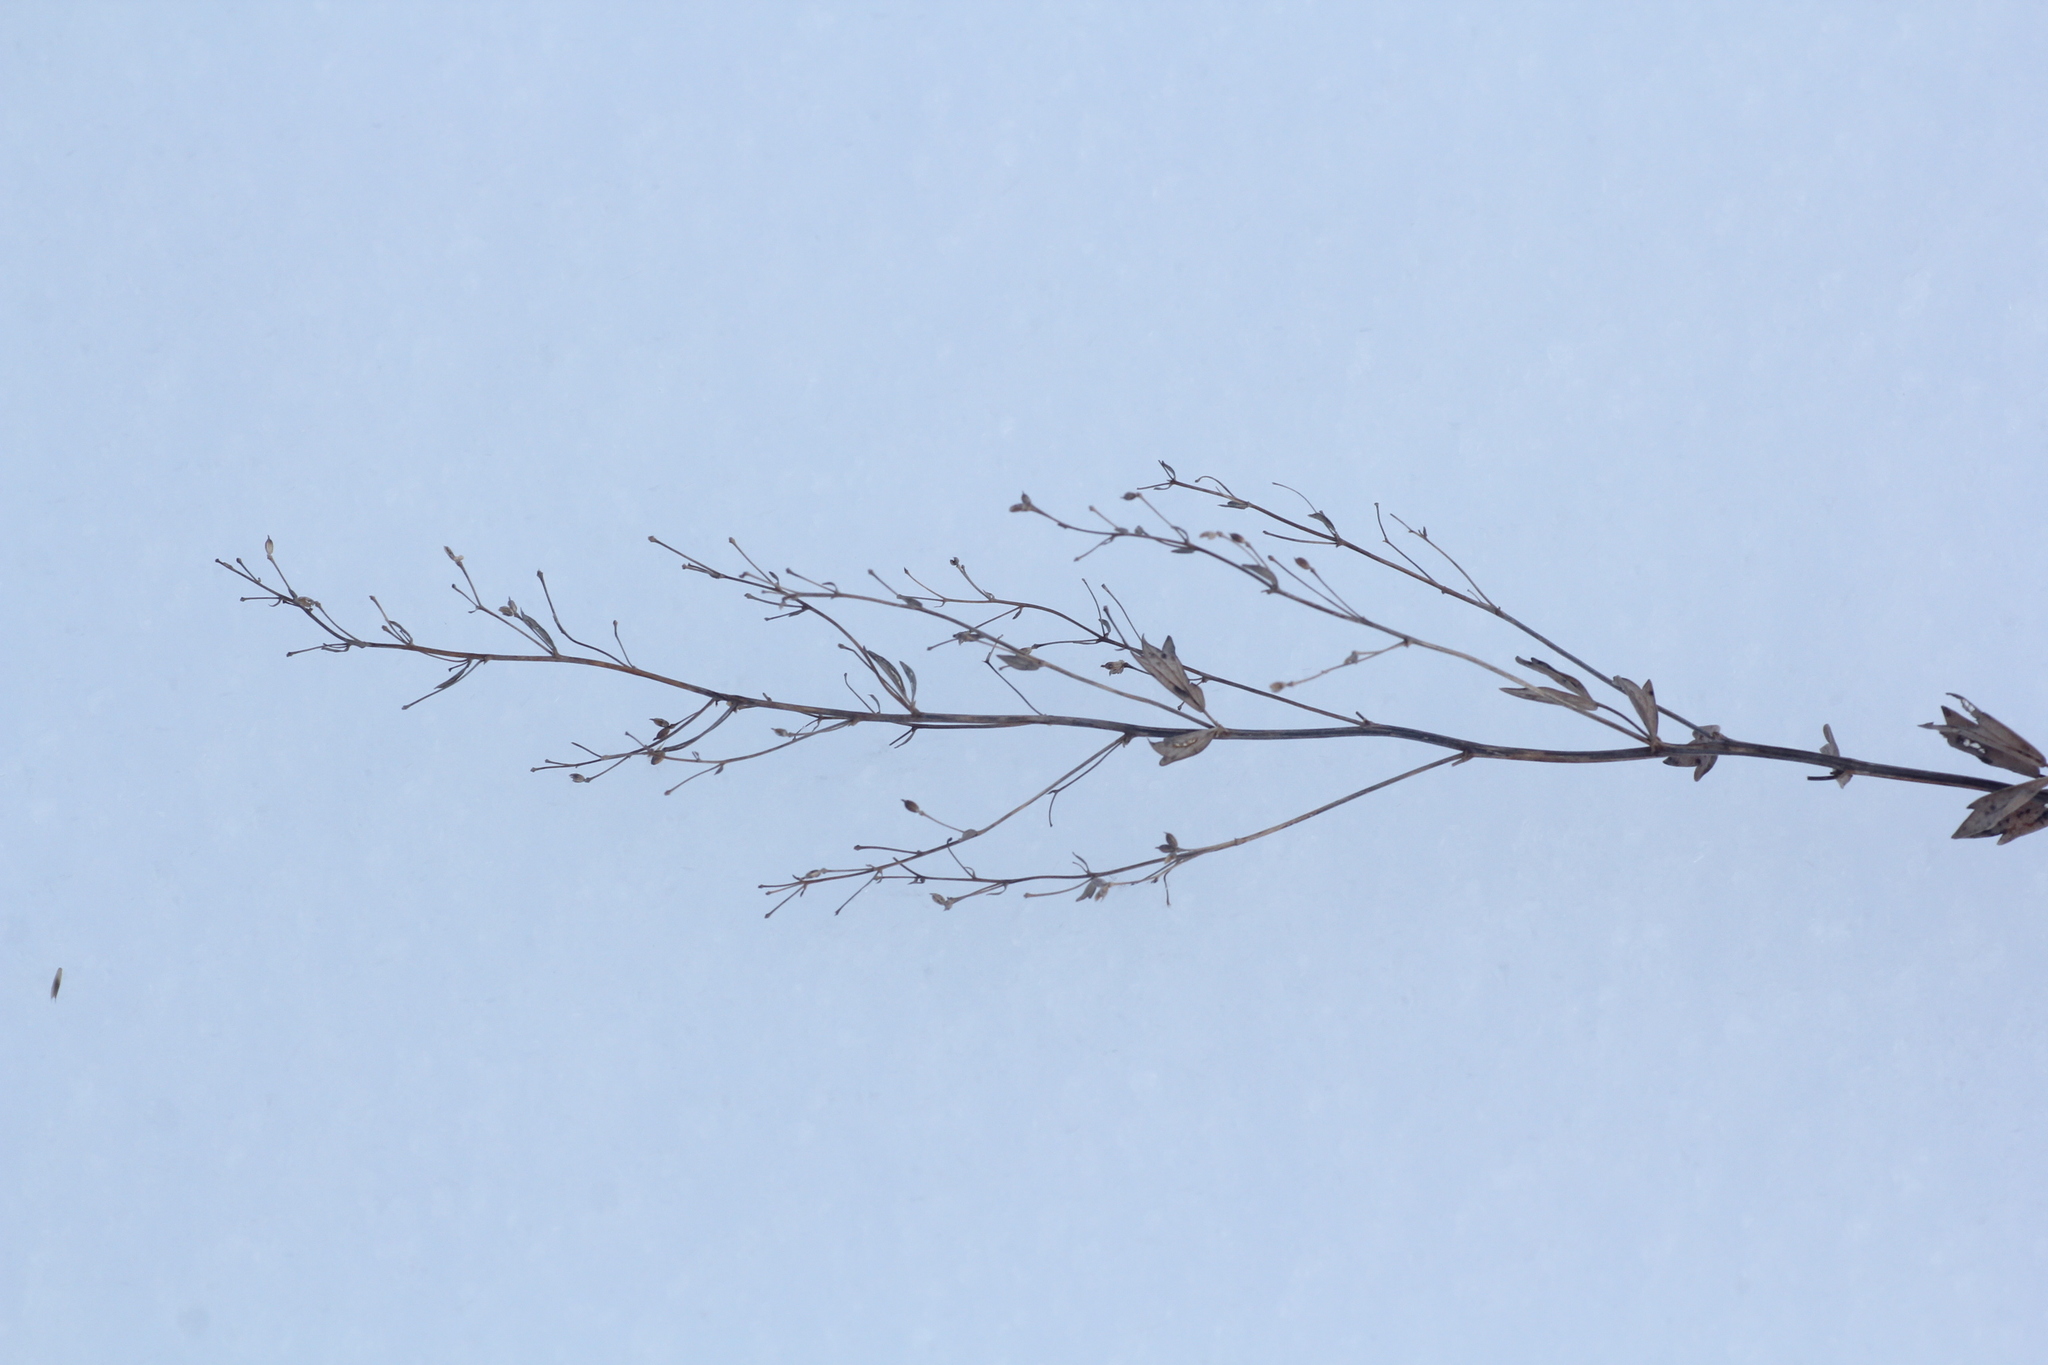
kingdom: Plantae
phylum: Tracheophyta
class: Magnoliopsida
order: Ranunculales
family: Ranunculaceae
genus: Thalictrum
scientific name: Thalictrum simplex
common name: Small meadow-rue
